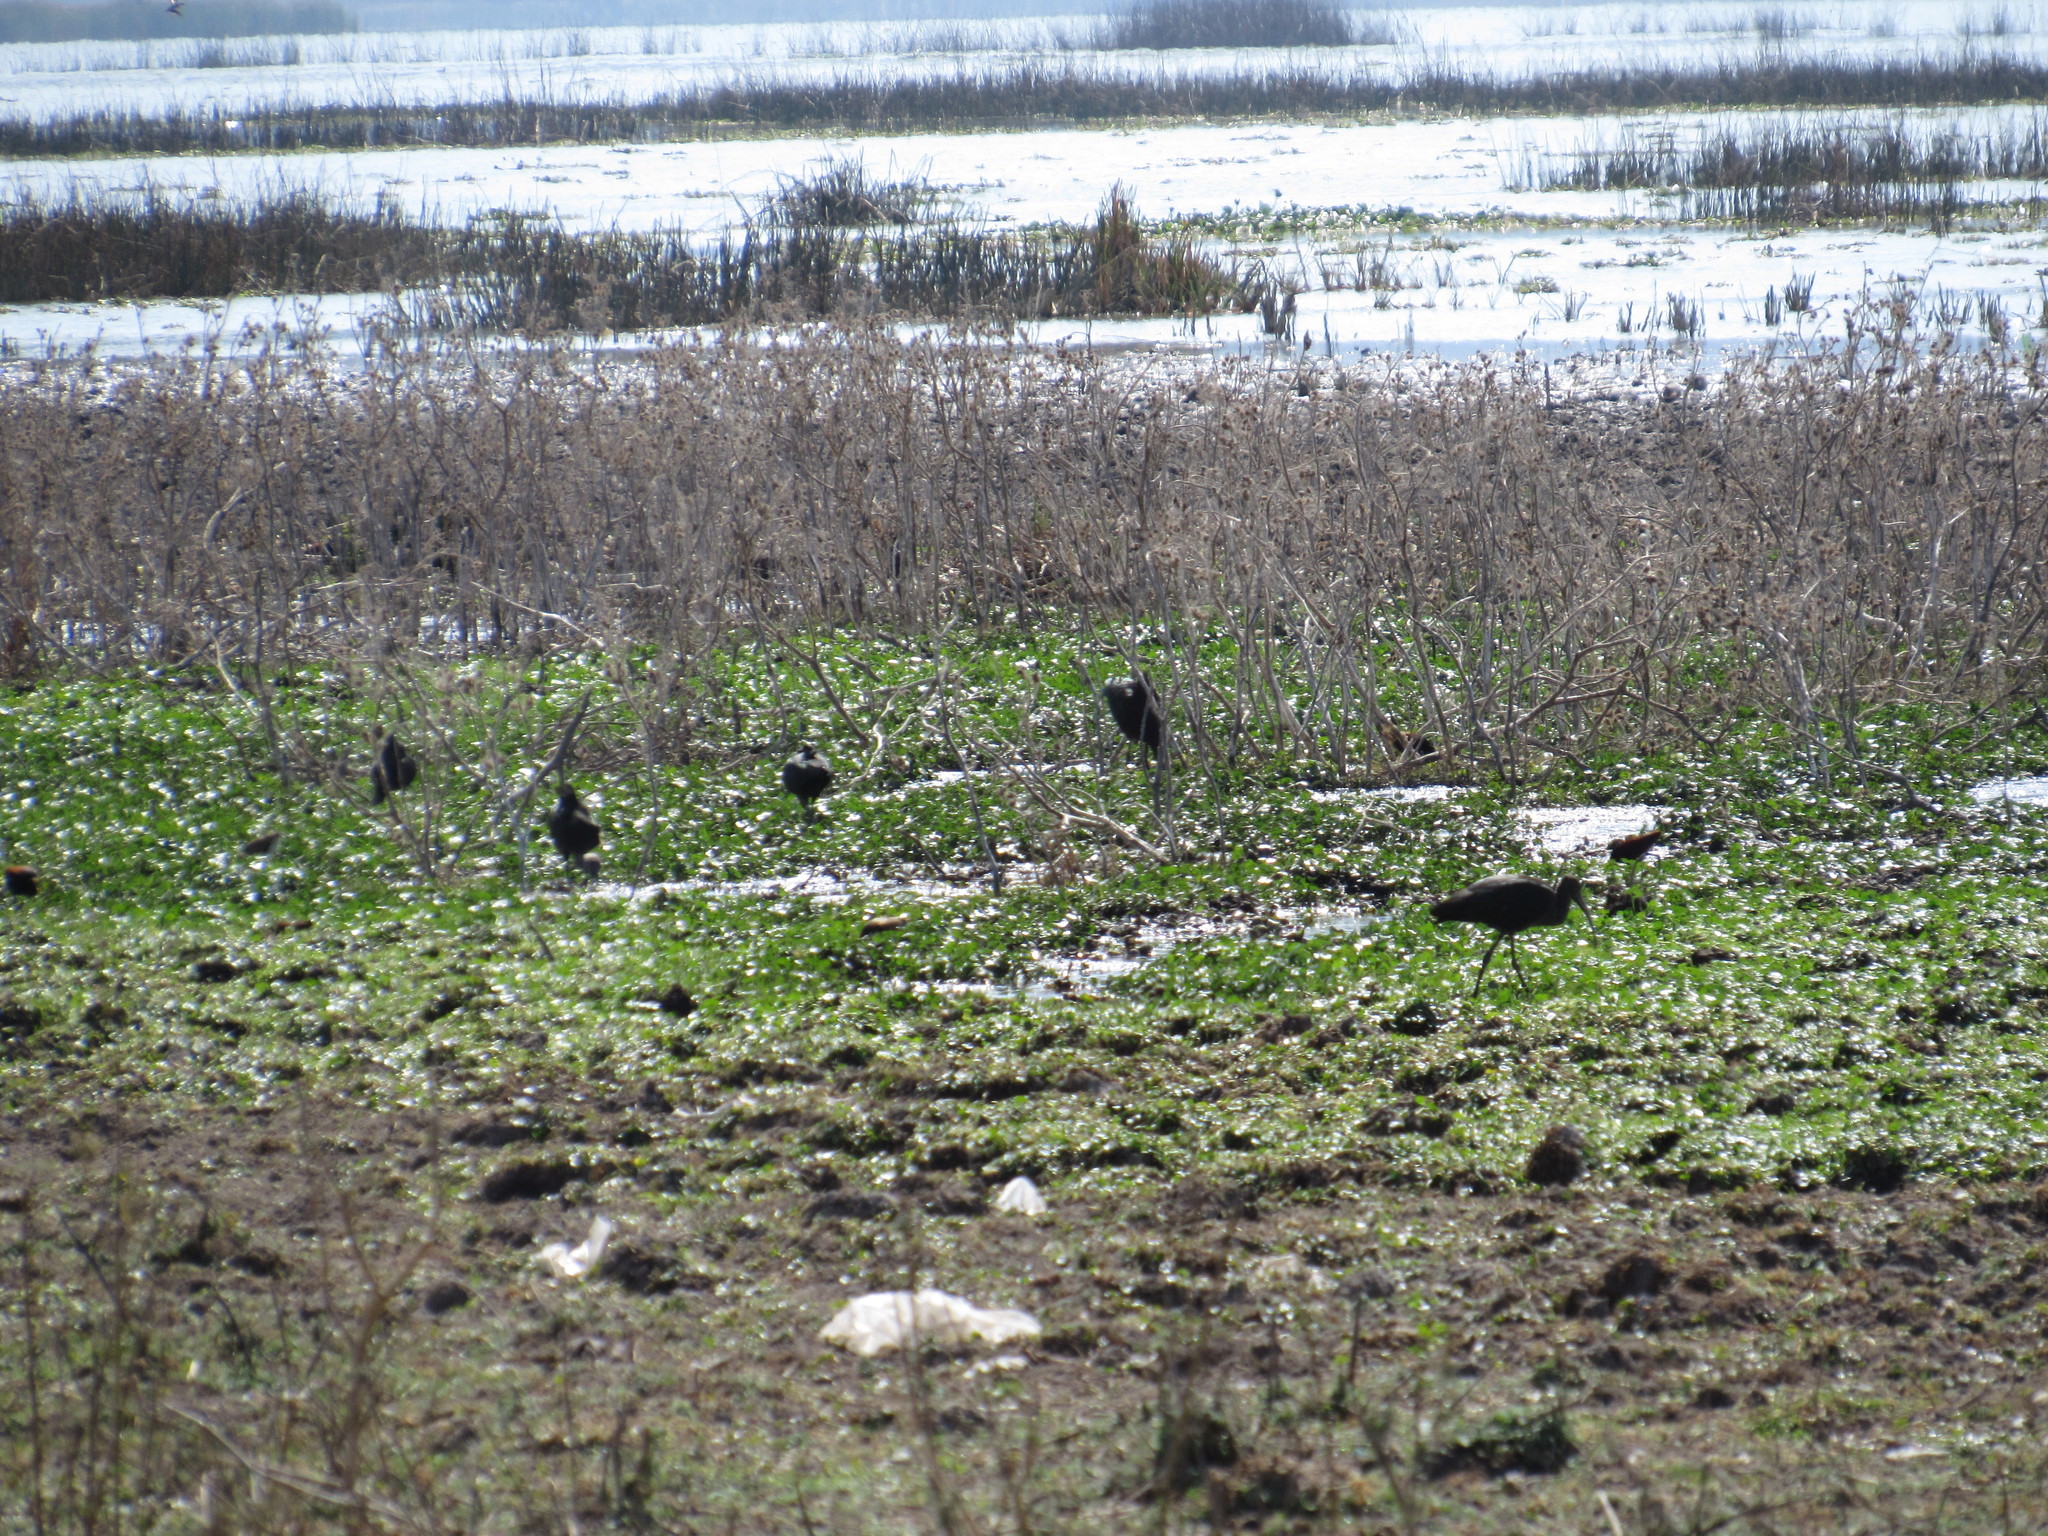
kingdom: Animalia
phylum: Chordata
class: Aves
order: Pelecaniformes
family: Threskiornithidae
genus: Plegadis
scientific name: Plegadis chihi
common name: White-faced ibis
